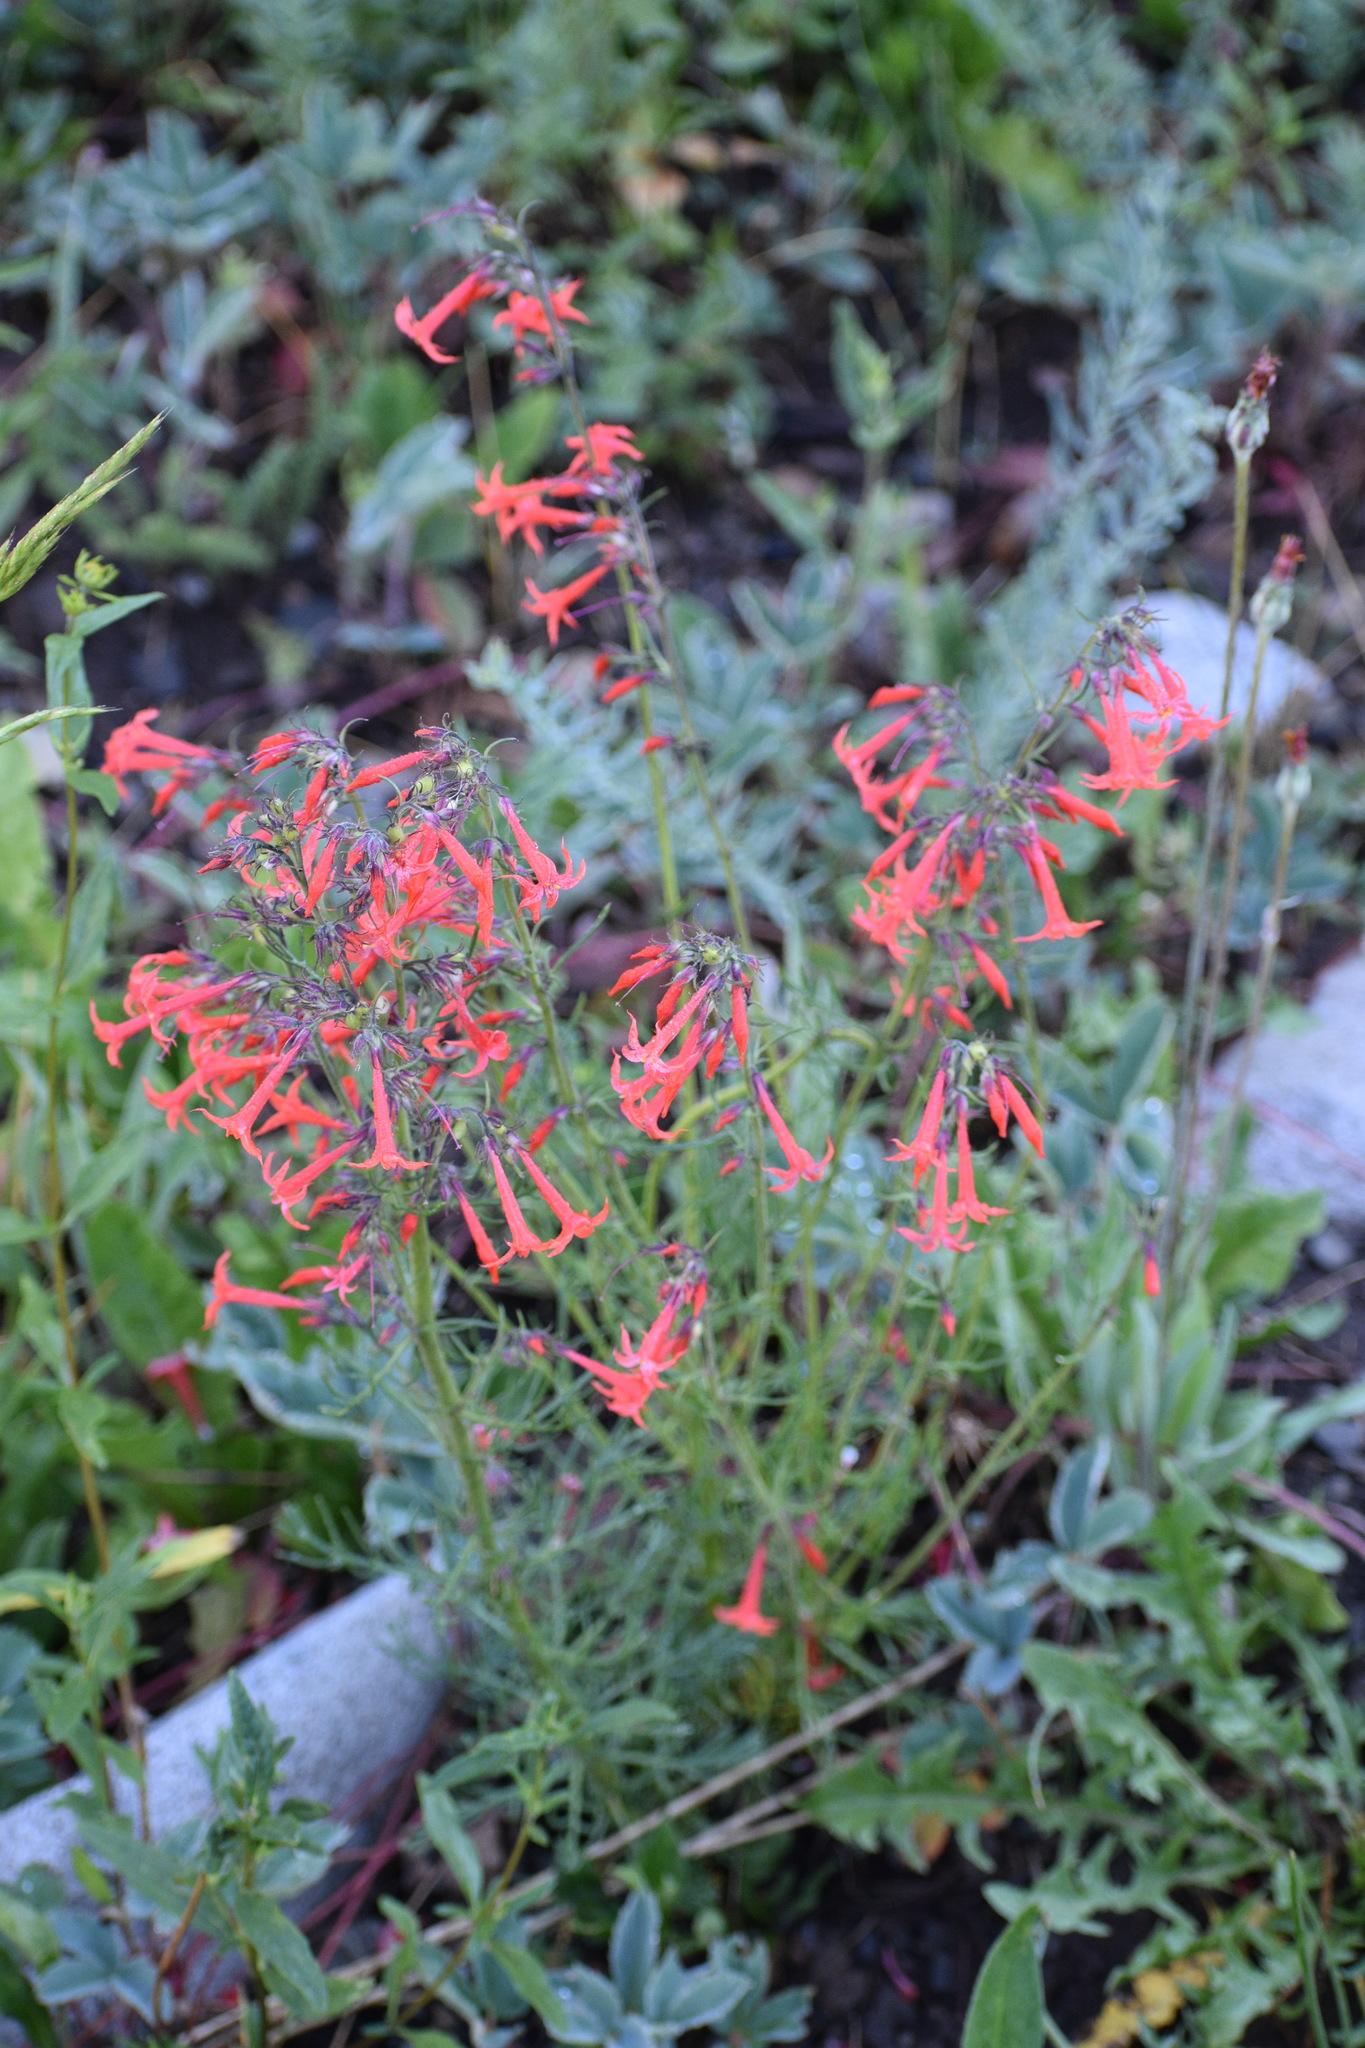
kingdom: Plantae
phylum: Tracheophyta
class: Magnoliopsida
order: Ericales
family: Polemoniaceae
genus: Ipomopsis
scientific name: Ipomopsis aggregata
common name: Scarlet gilia
